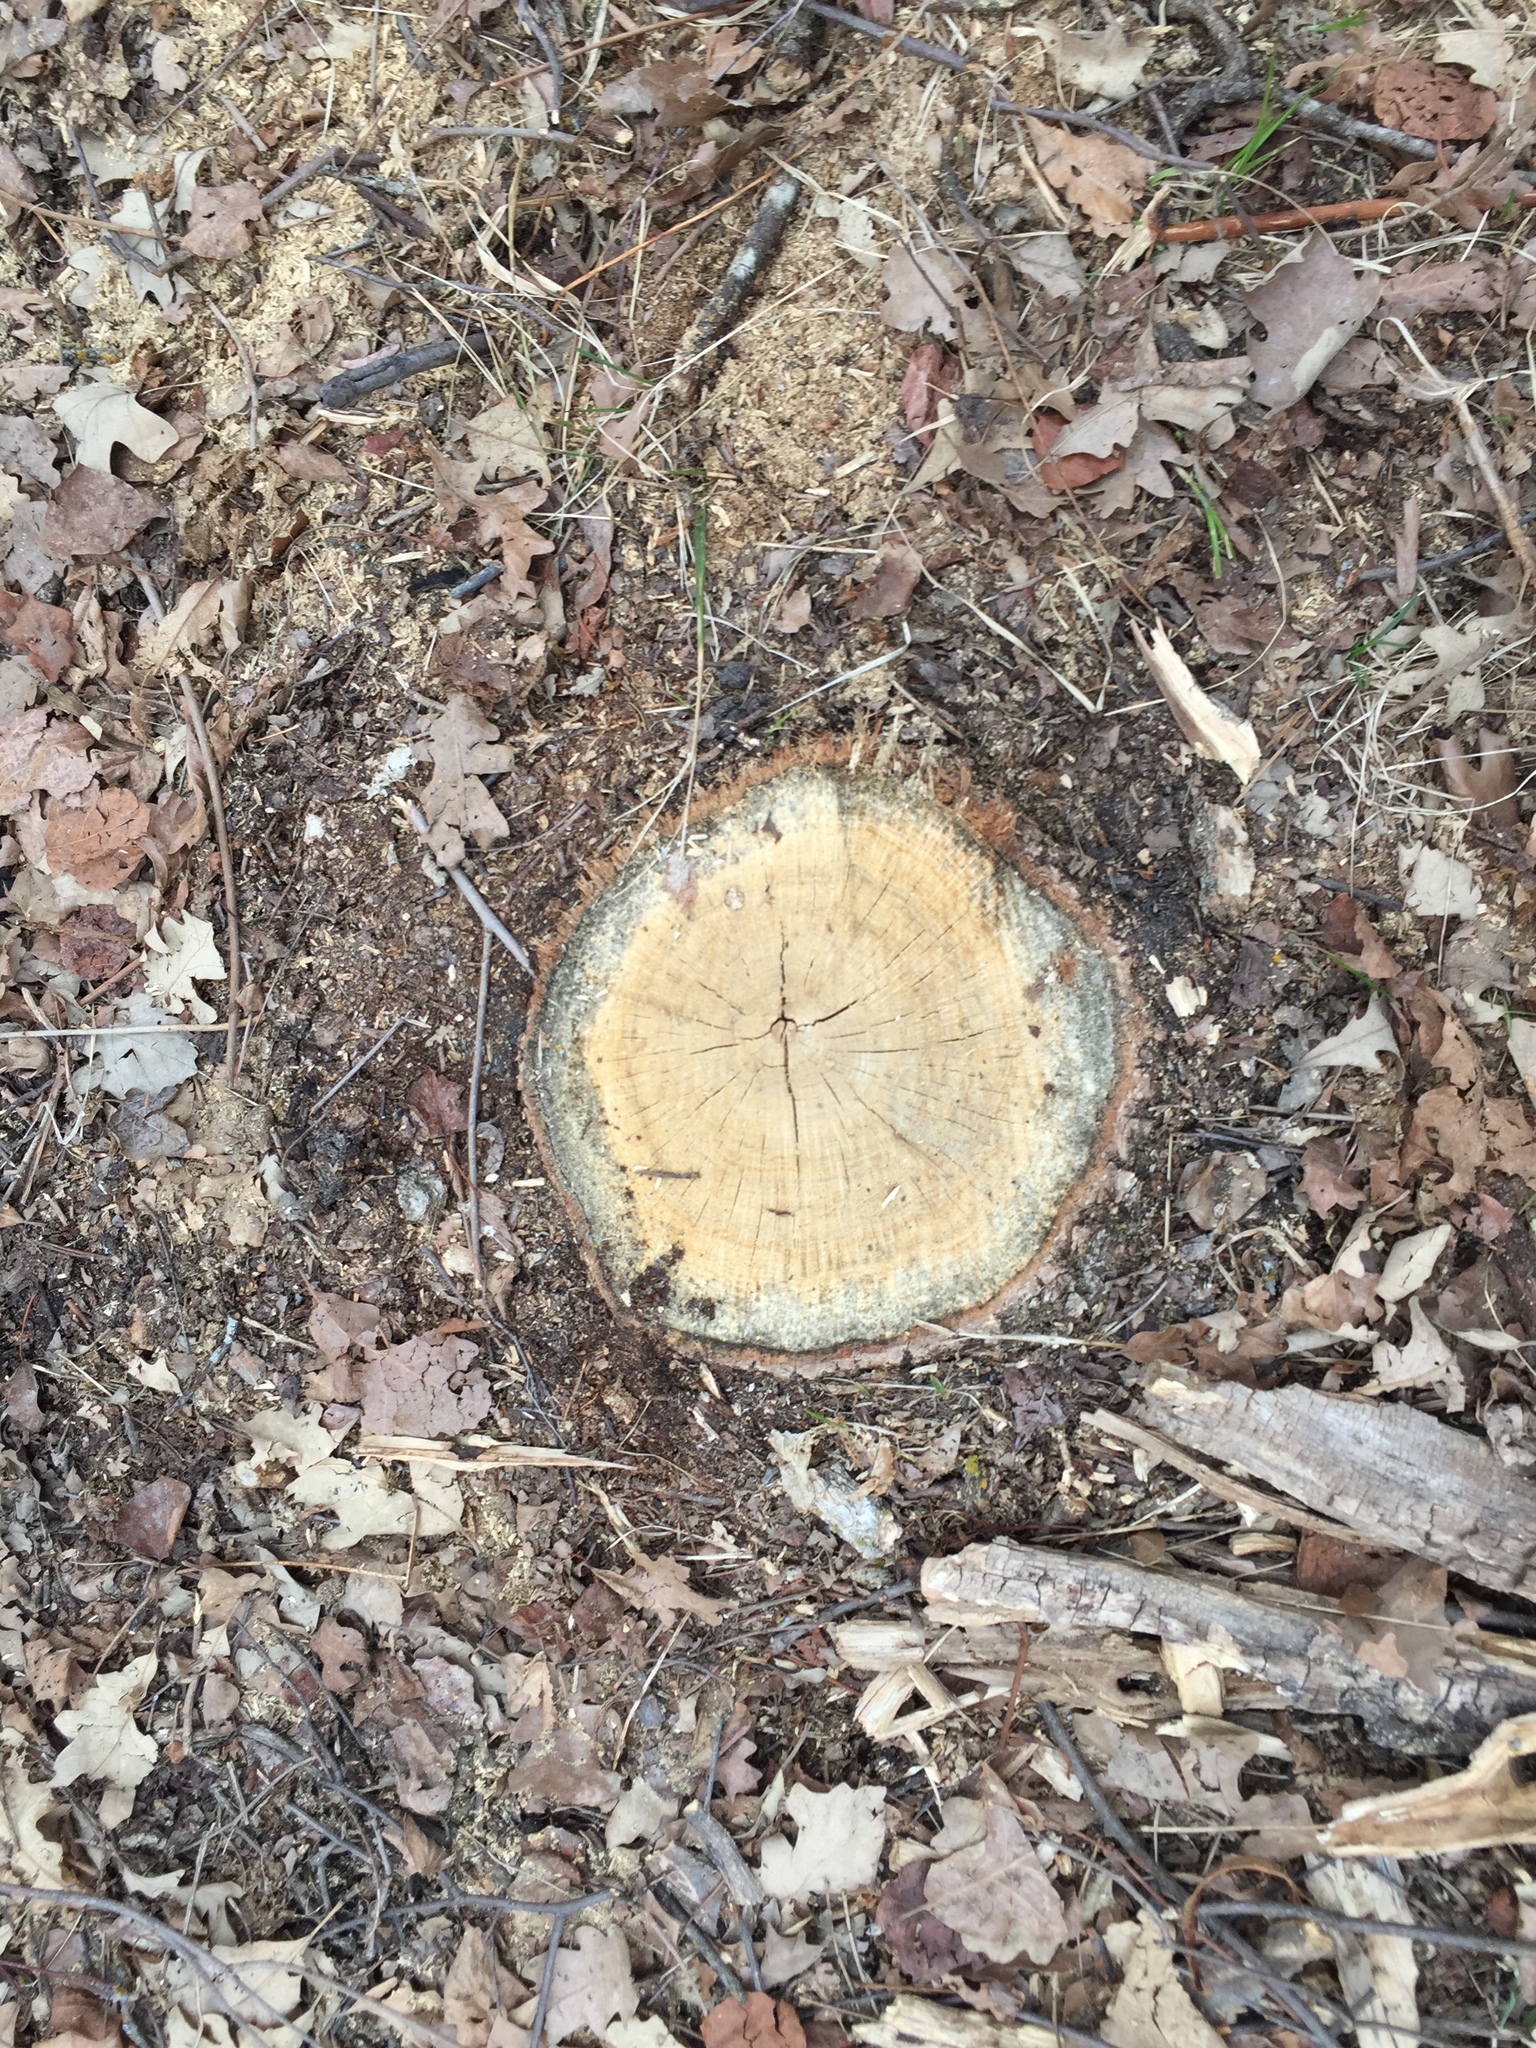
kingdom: Plantae
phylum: Tracheophyta
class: Magnoliopsida
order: Fagales
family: Fagaceae
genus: Quercus
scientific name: Quercus macrocarpa
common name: Bur oak
